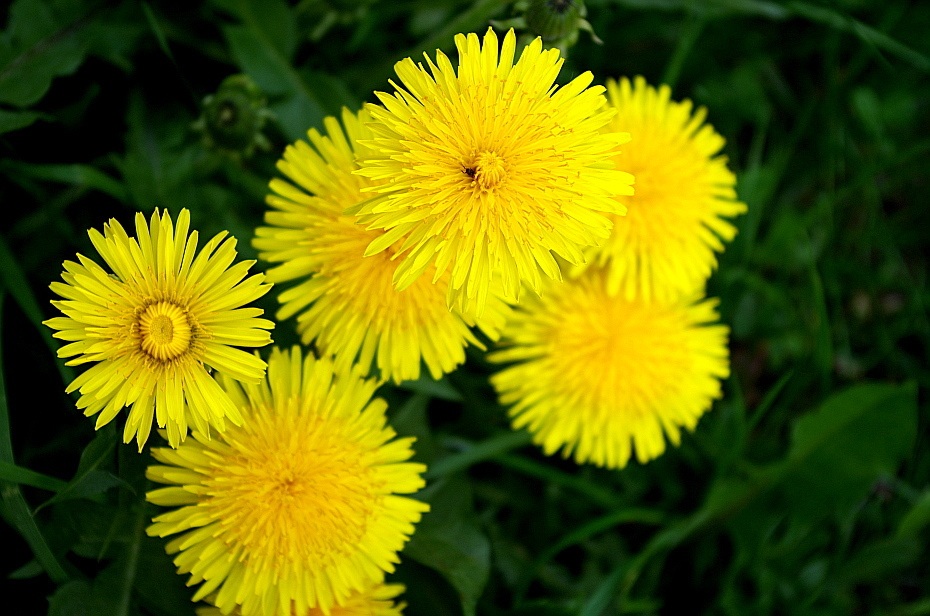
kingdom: Plantae
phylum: Tracheophyta
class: Magnoliopsida
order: Asterales
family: Asteraceae
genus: Taraxacum
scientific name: Taraxacum officinale
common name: Common dandelion
